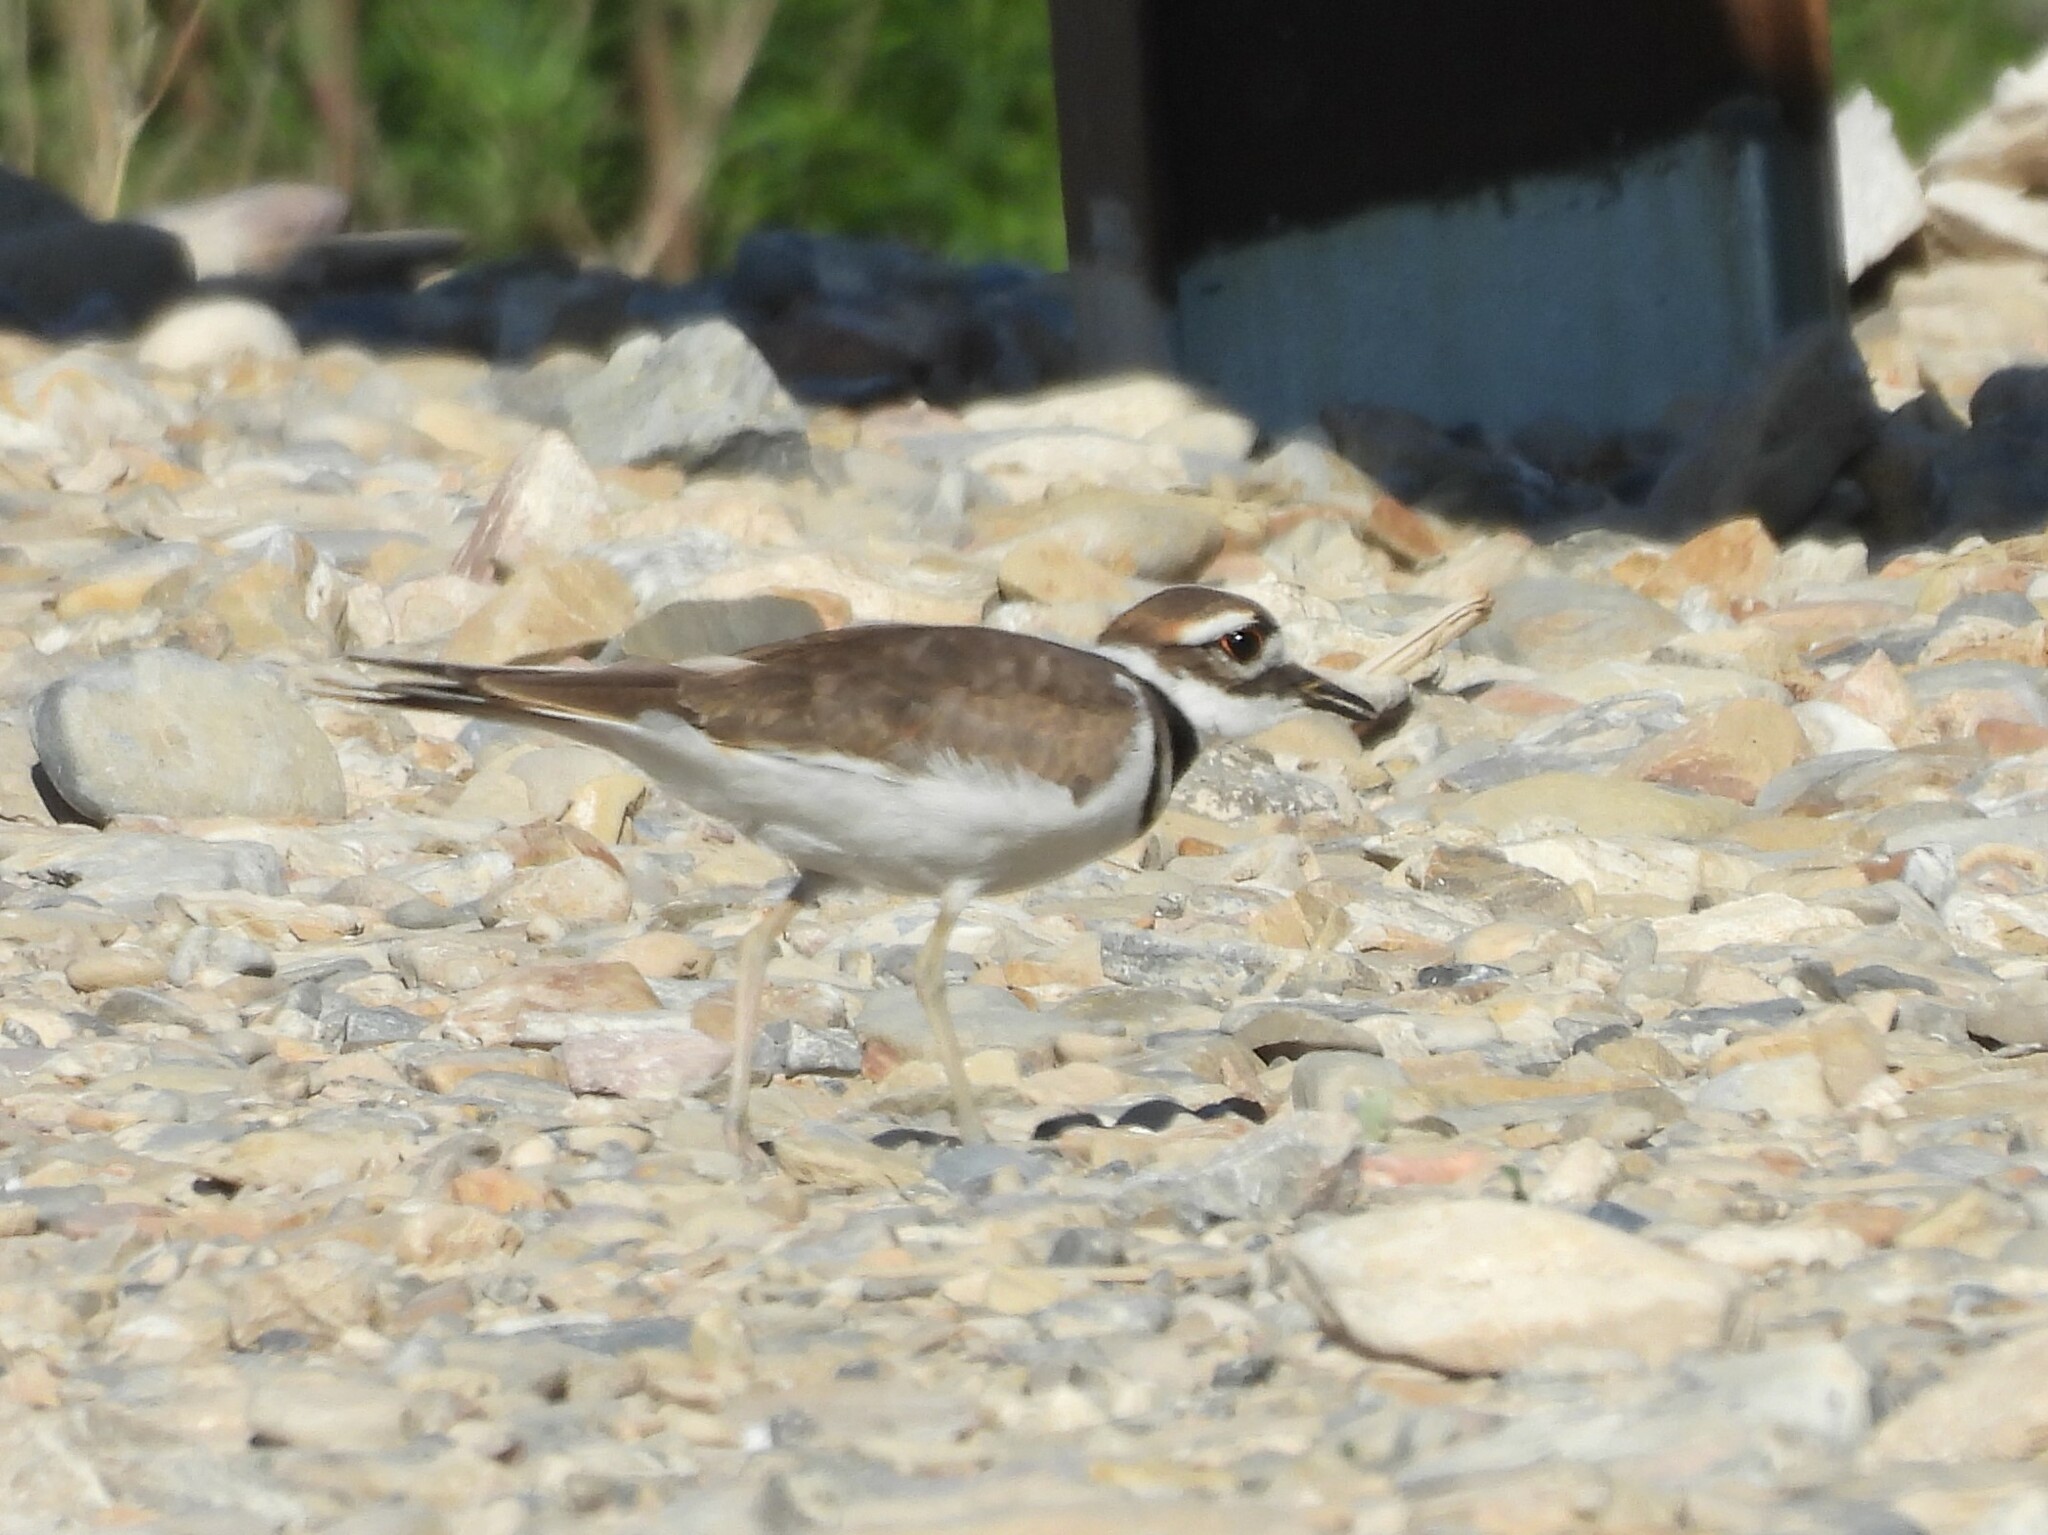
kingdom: Animalia
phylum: Chordata
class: Aves
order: Charadriiformes
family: Charadriidae
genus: Charadrius
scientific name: Charadrius vociferus
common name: Killdeer
